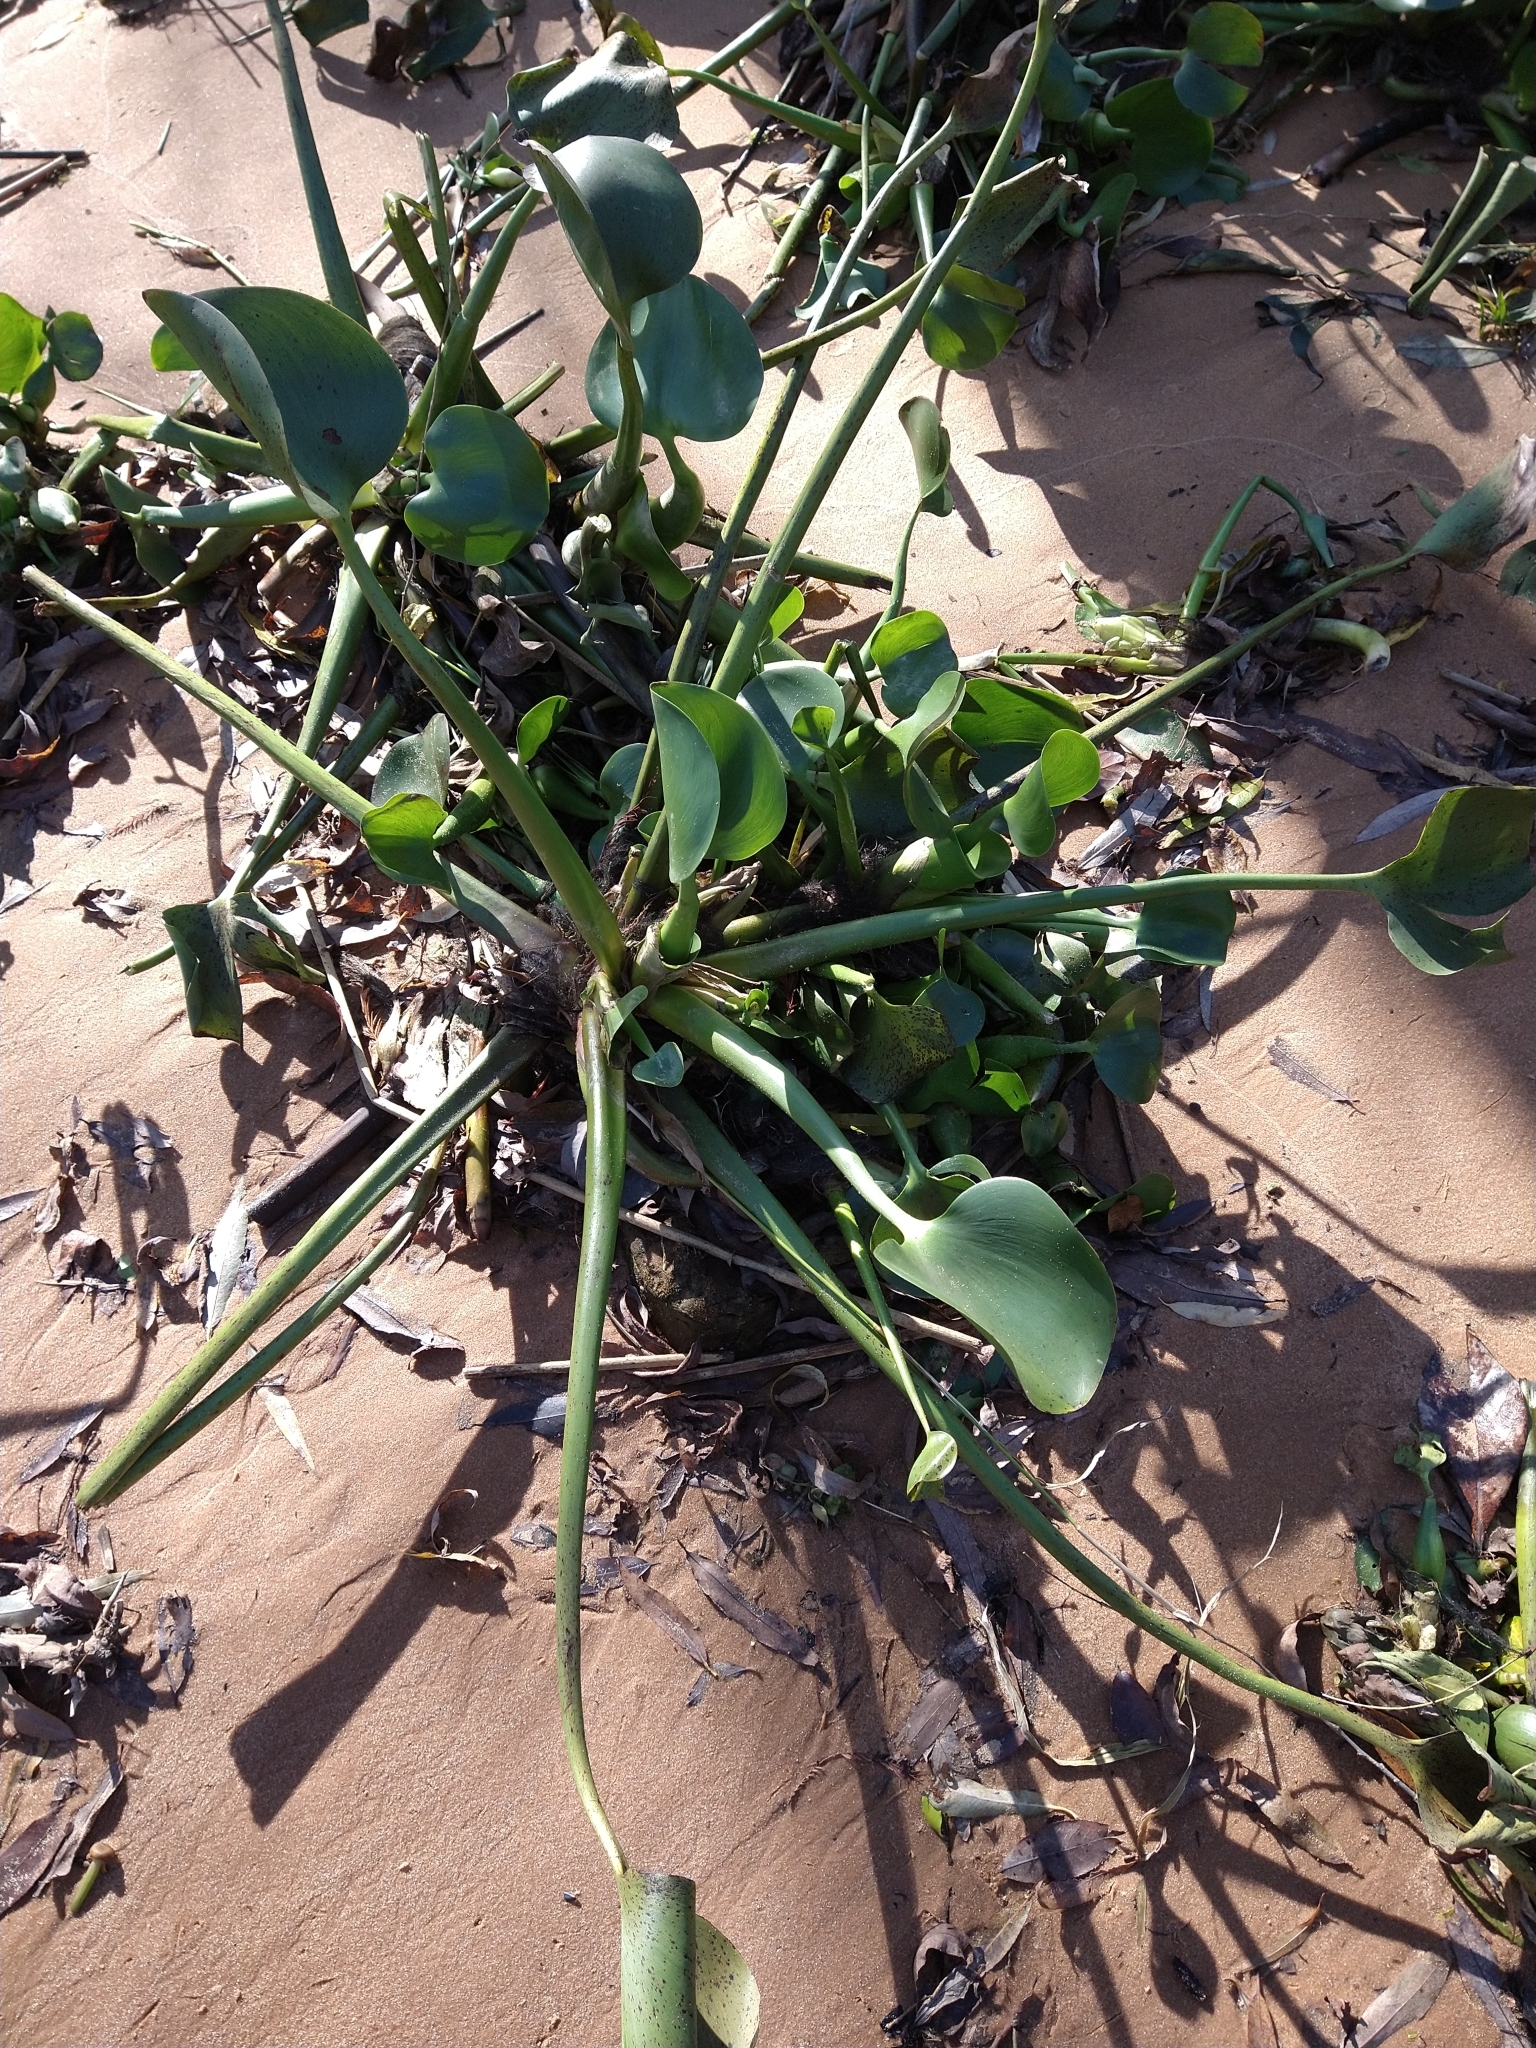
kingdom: Plantae
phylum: Tracheophyta
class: Liliopsida
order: Commelinales
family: Pontederiaceae
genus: Pontederia
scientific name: Pontederia crassipes
